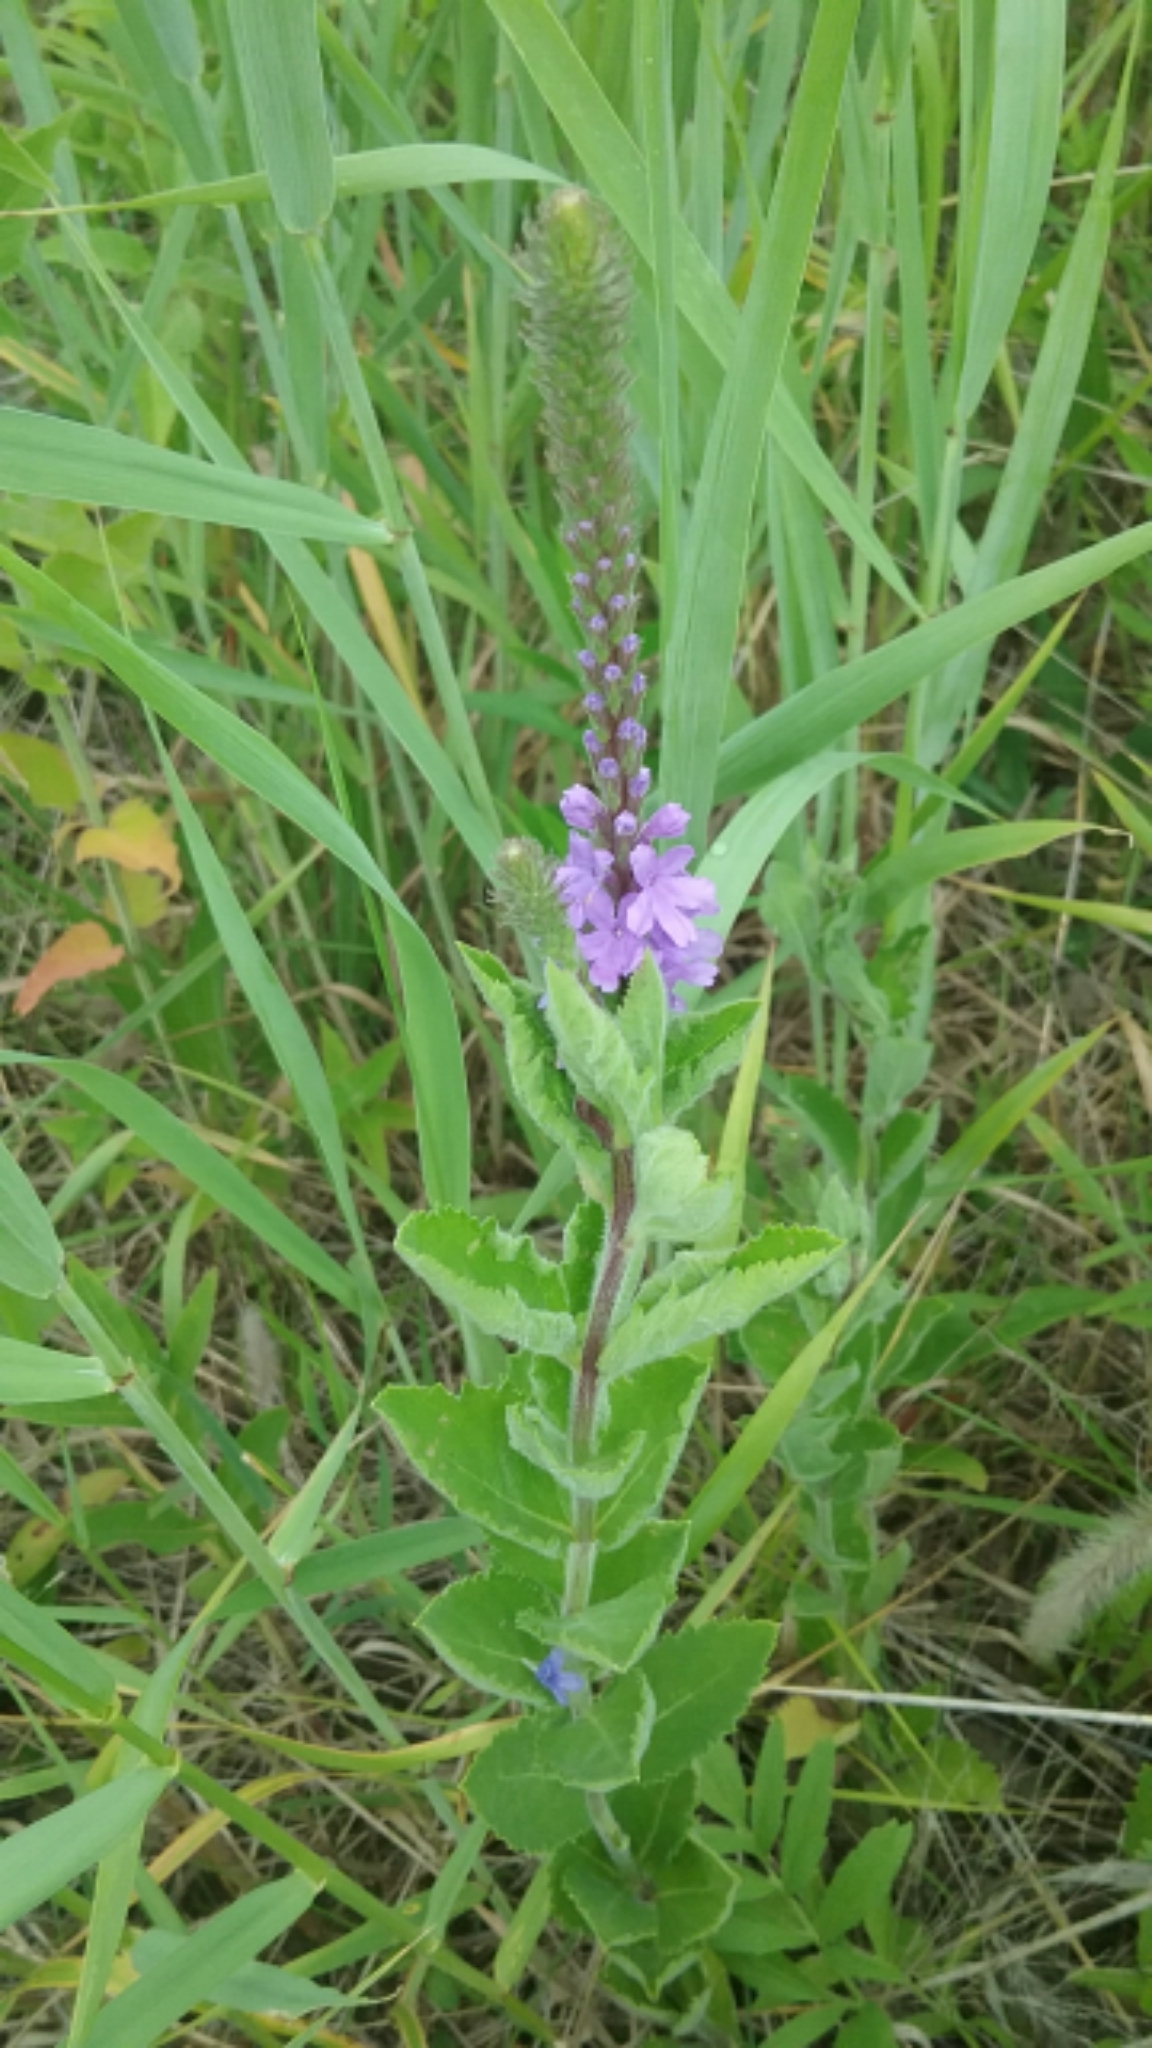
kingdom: Plantae
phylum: Tracheophyta
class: Magnoliopsida
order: Lamiales
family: Verbenaceae
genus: Verbena
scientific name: Verbena stricta
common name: Hoary vervain
